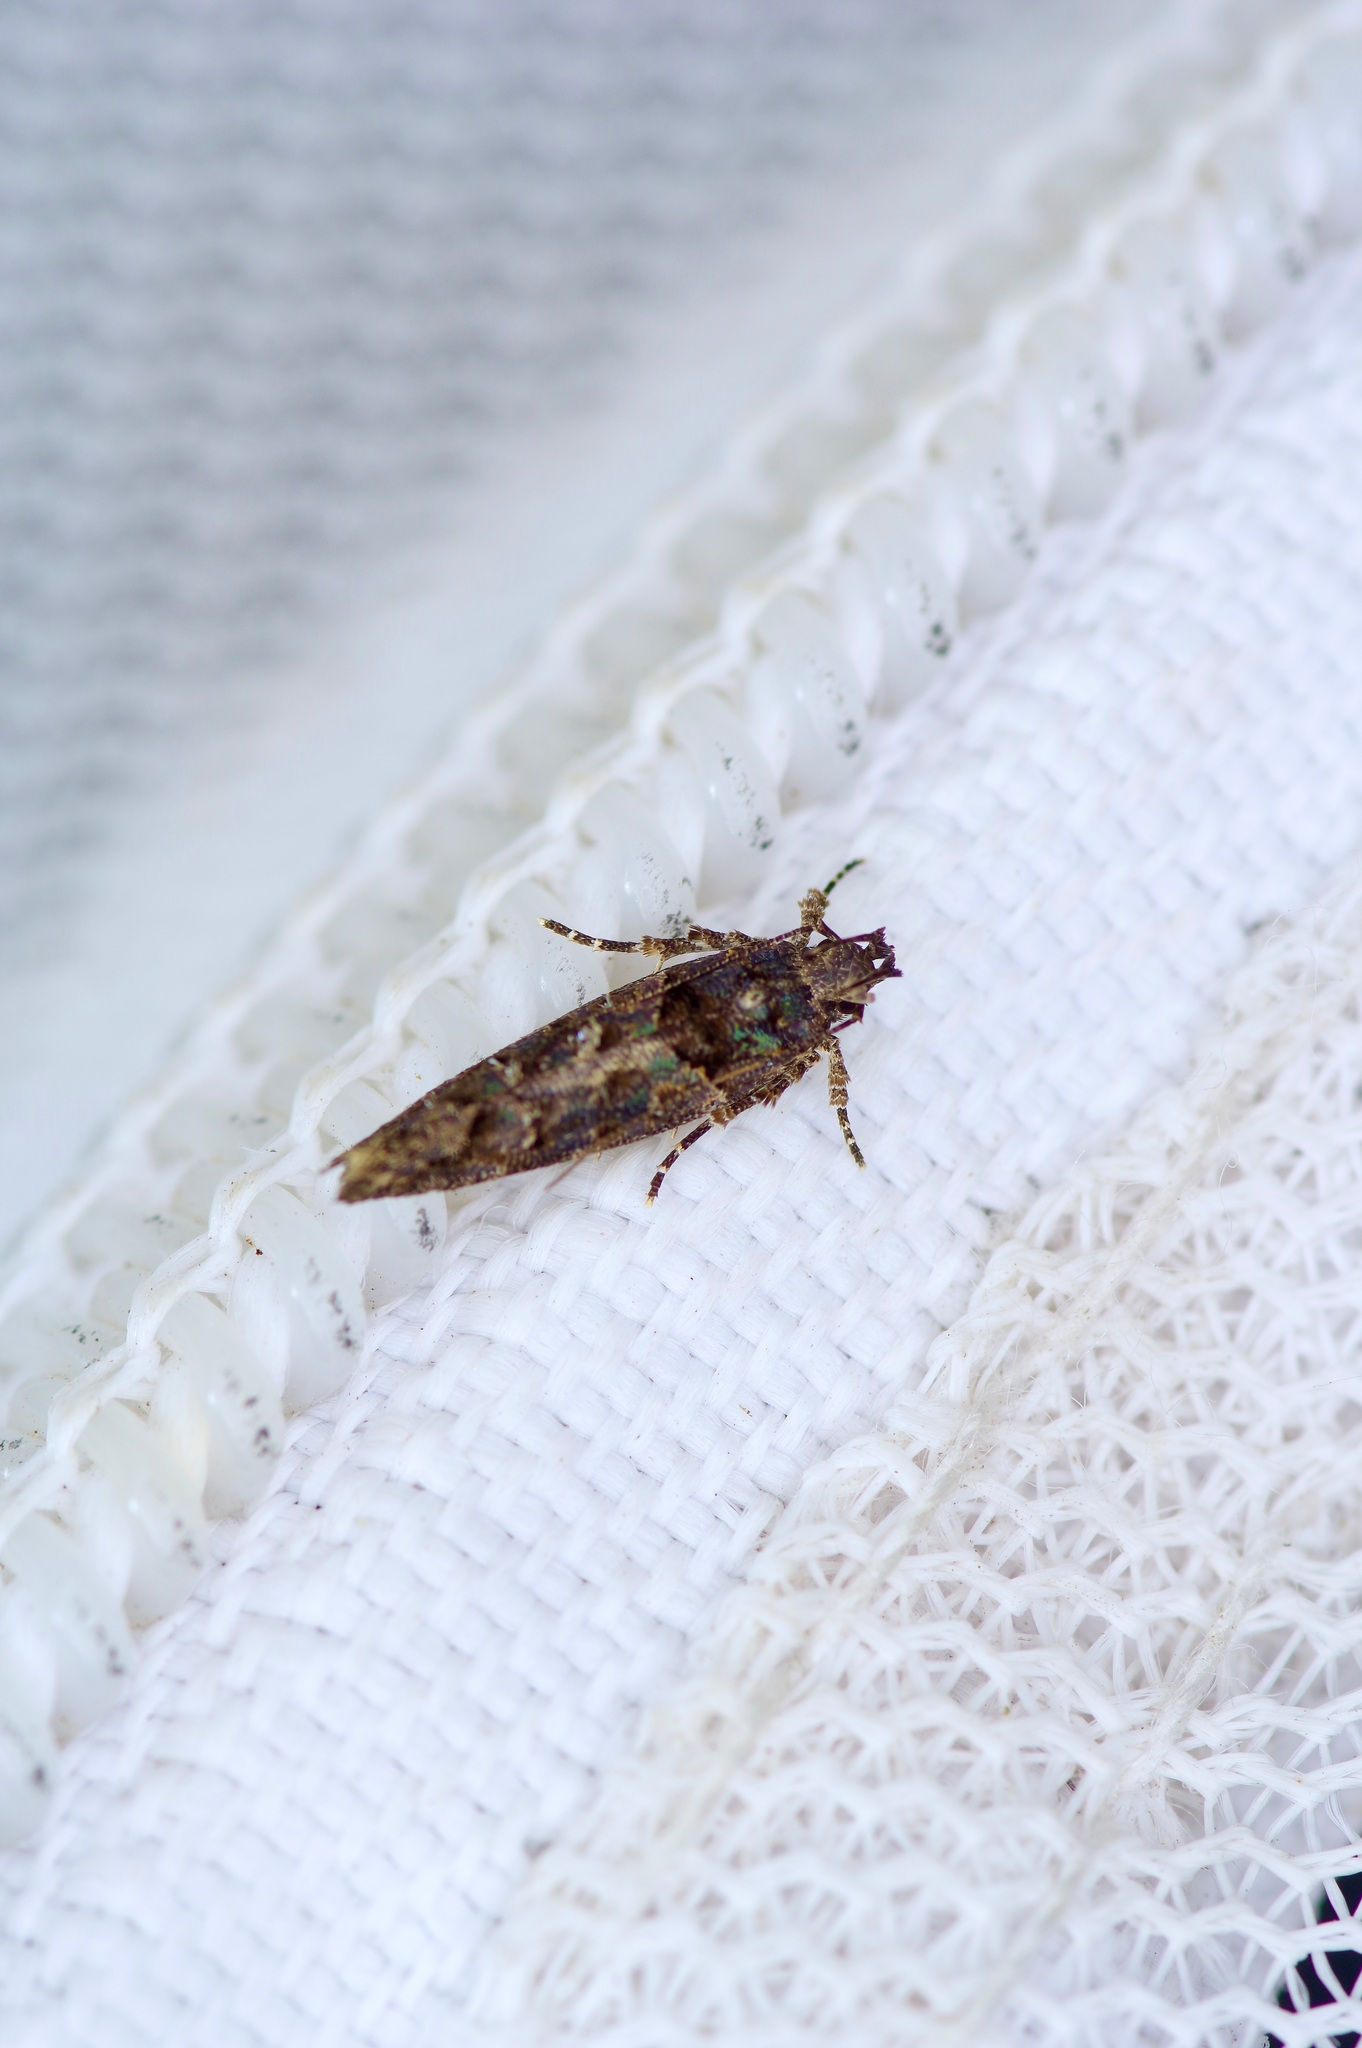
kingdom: Animalia
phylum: Arthropoda
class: Insecta
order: Lepidoptera
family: Gelechiidae
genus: Telphusa
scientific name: Telphusa perspicua
